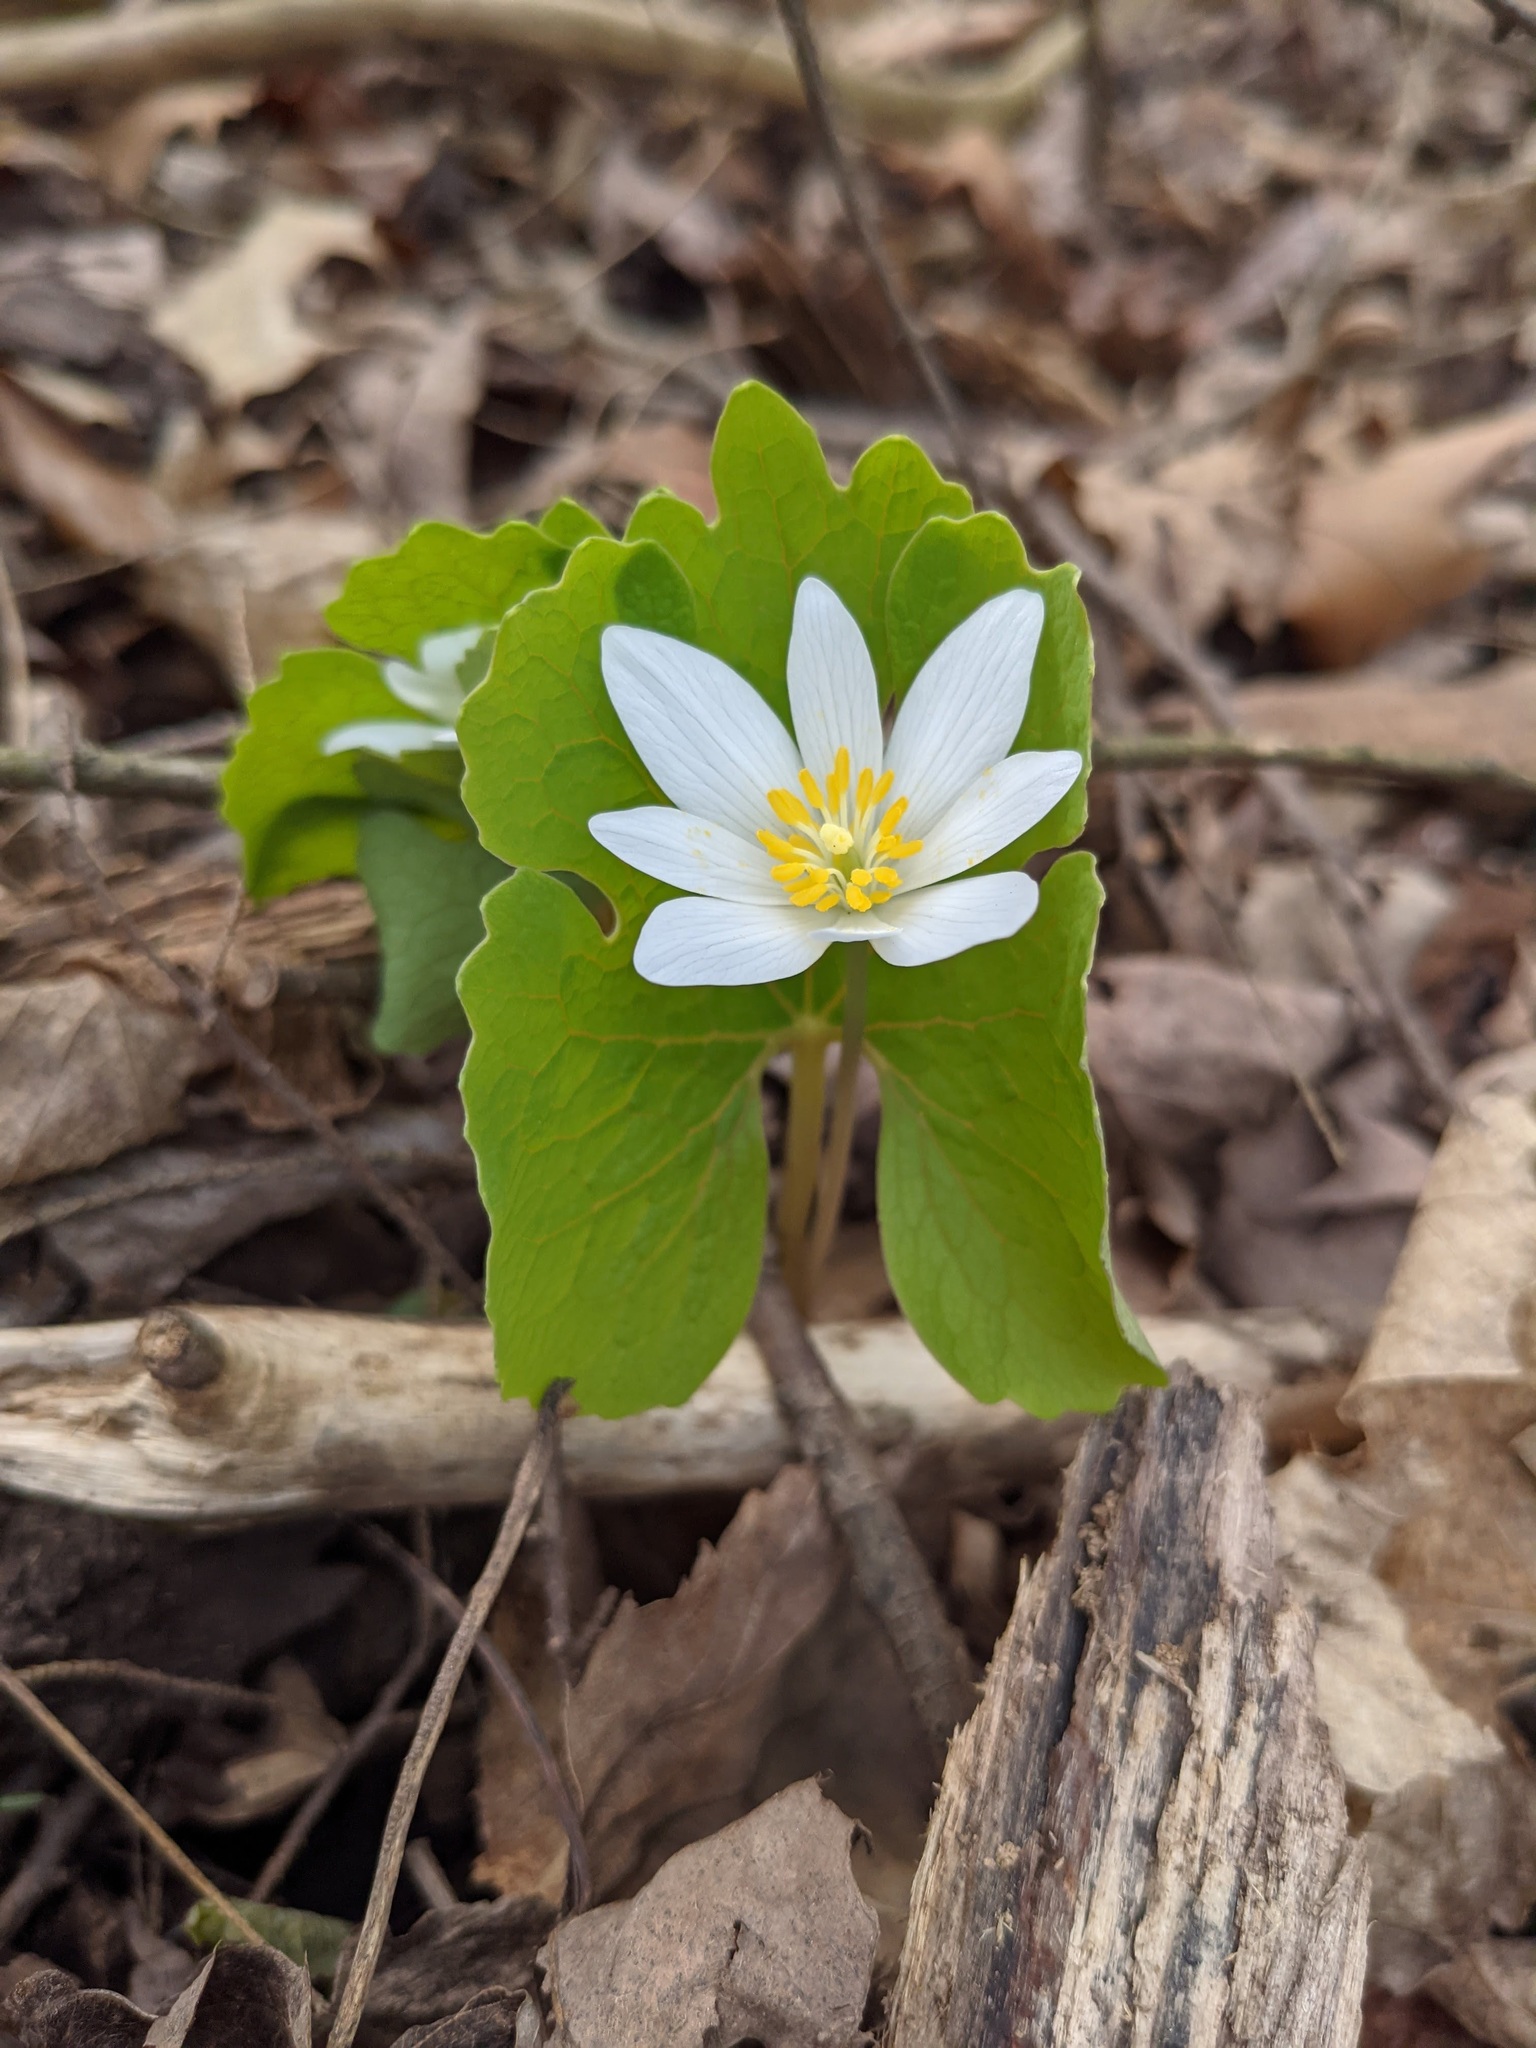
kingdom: Plantae
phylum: Tracheophyta
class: Magnoliopsida
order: Ranunculales
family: Papaveraceae
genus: Sanguinaria
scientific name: Sanguinaria canadensis
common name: Bloodroot
